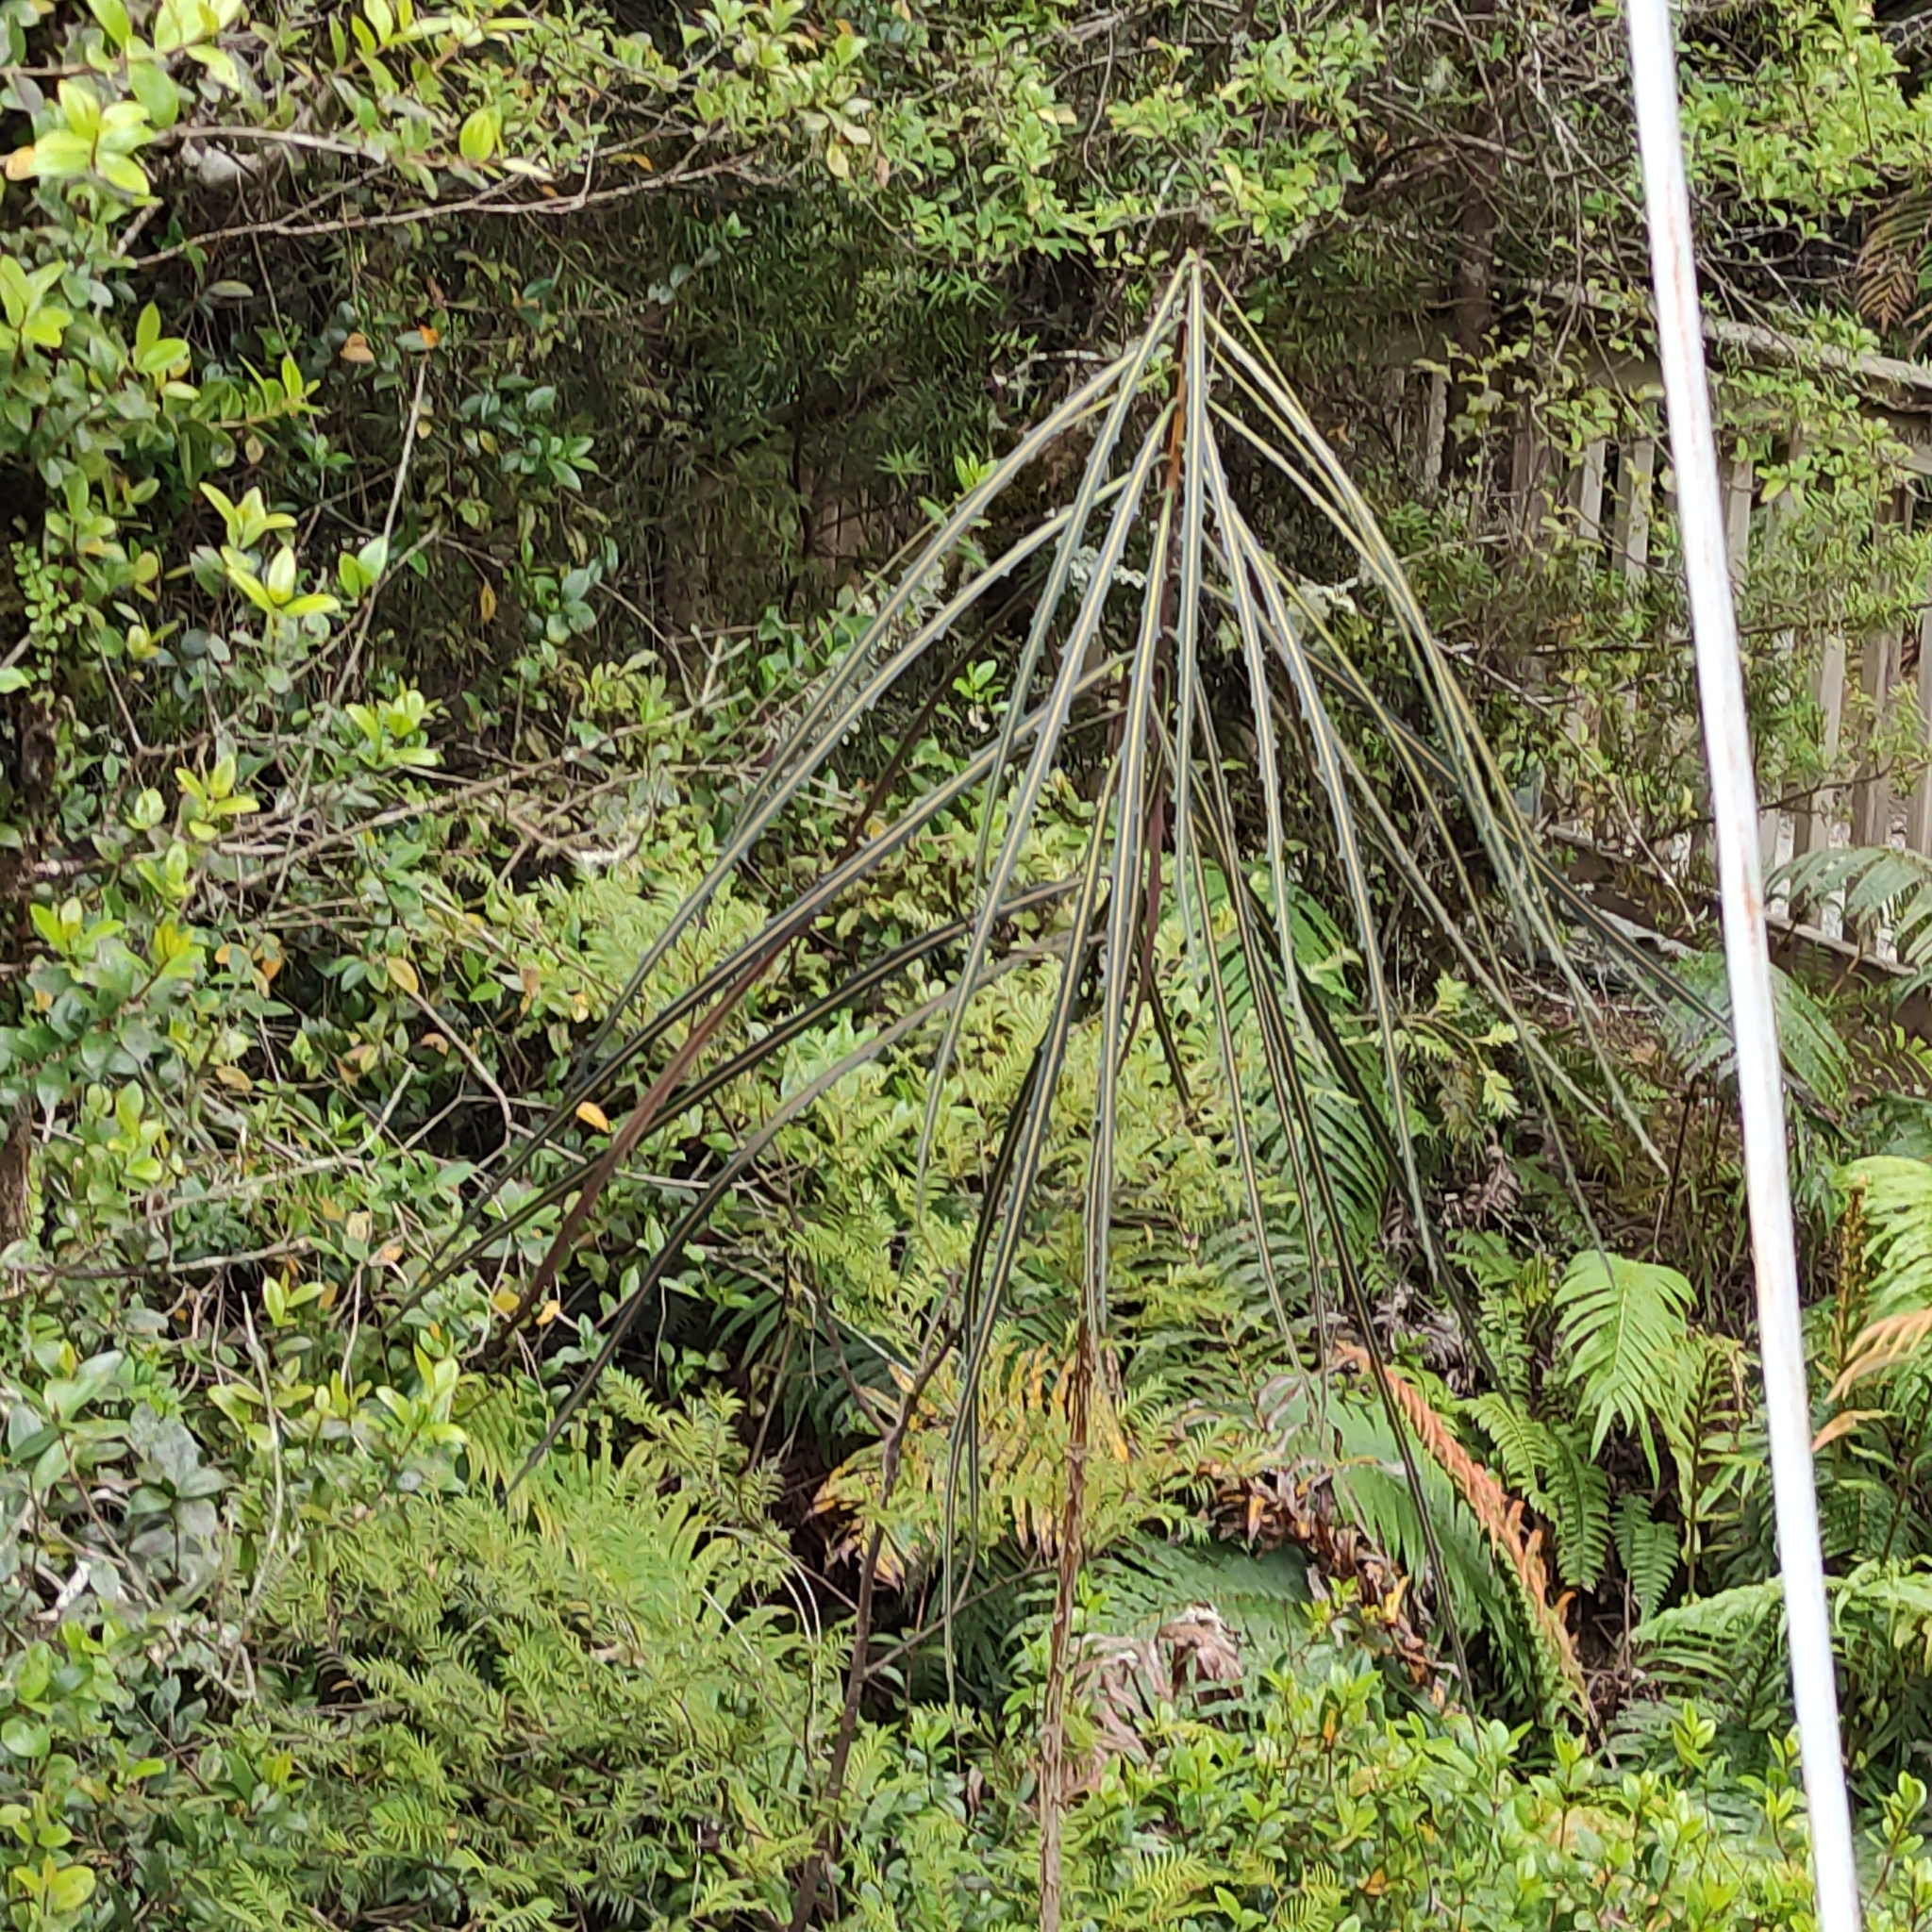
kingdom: Plantae
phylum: Tracheophyta
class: Magnoliopsida
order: Apiales
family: Araliaceae
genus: Pseudopanax
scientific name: Pseudopanax crassifolius
